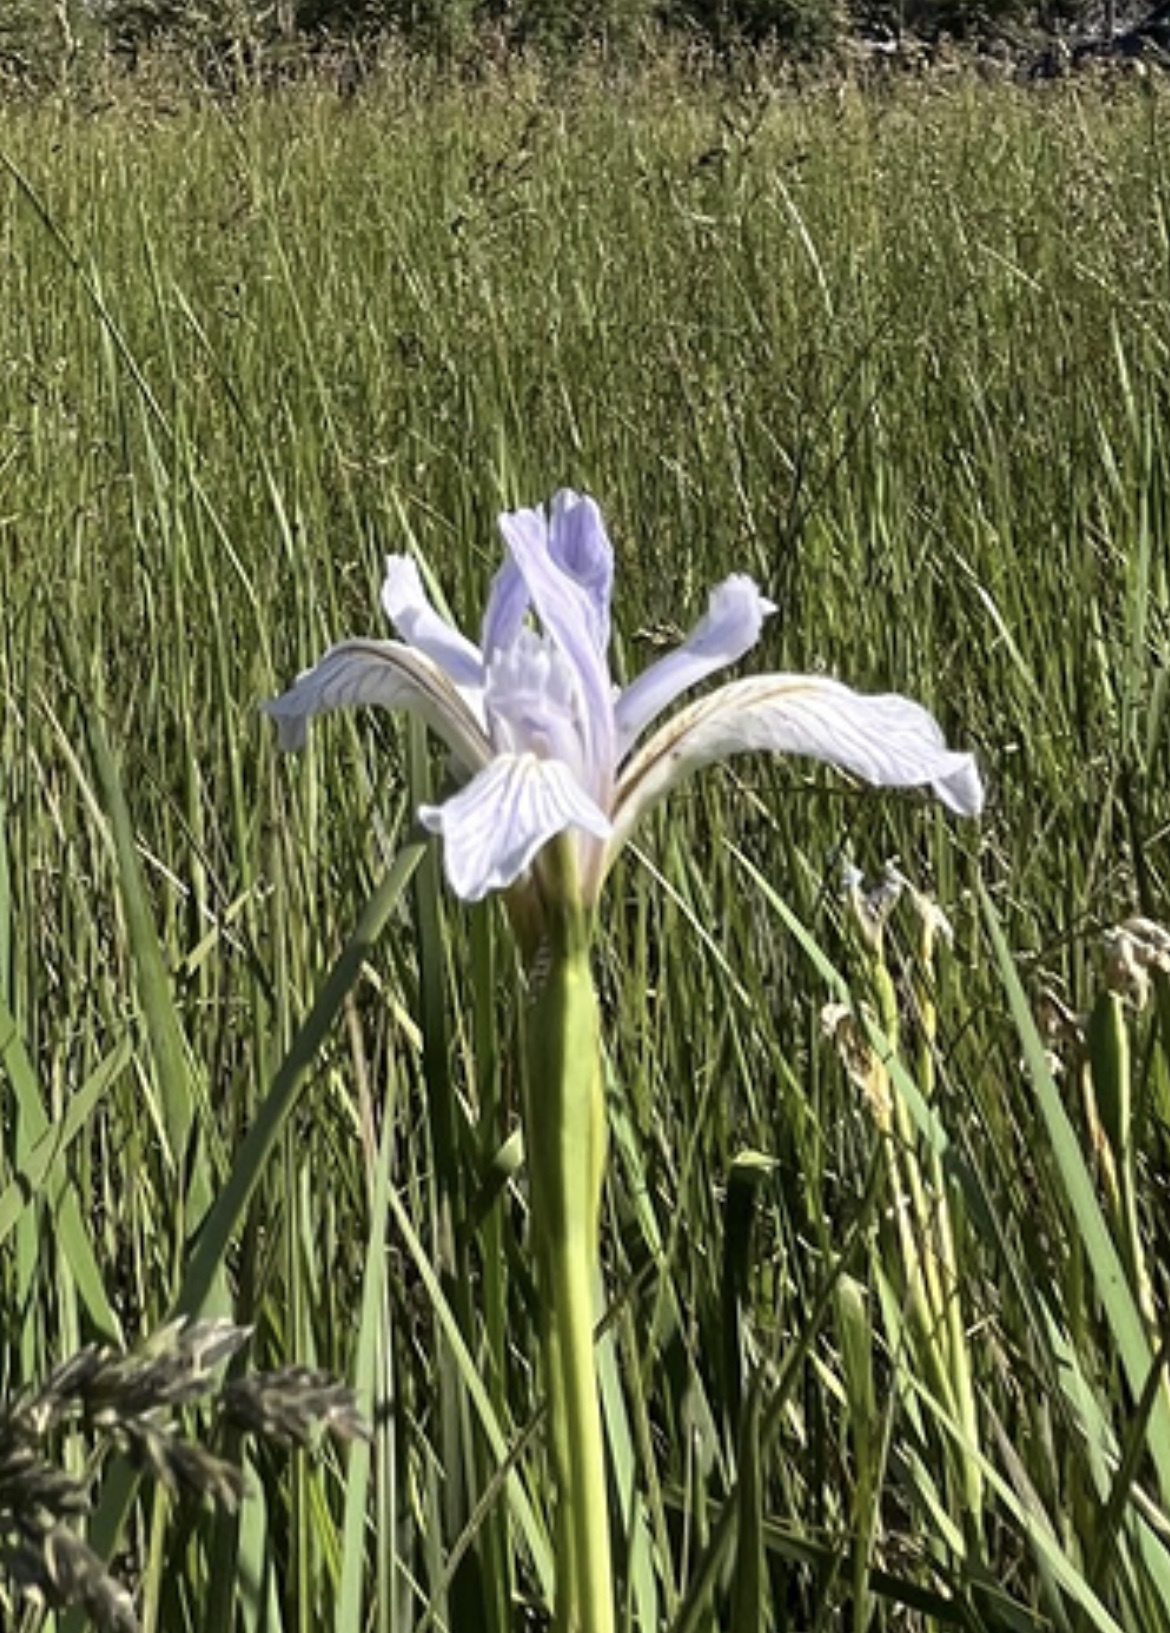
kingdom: Plantae
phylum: Tracheophyta
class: Liliopsida
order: Asparagales
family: Iridaceae
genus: Iris
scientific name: Iris missouriensis
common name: Rocky mountain iris
